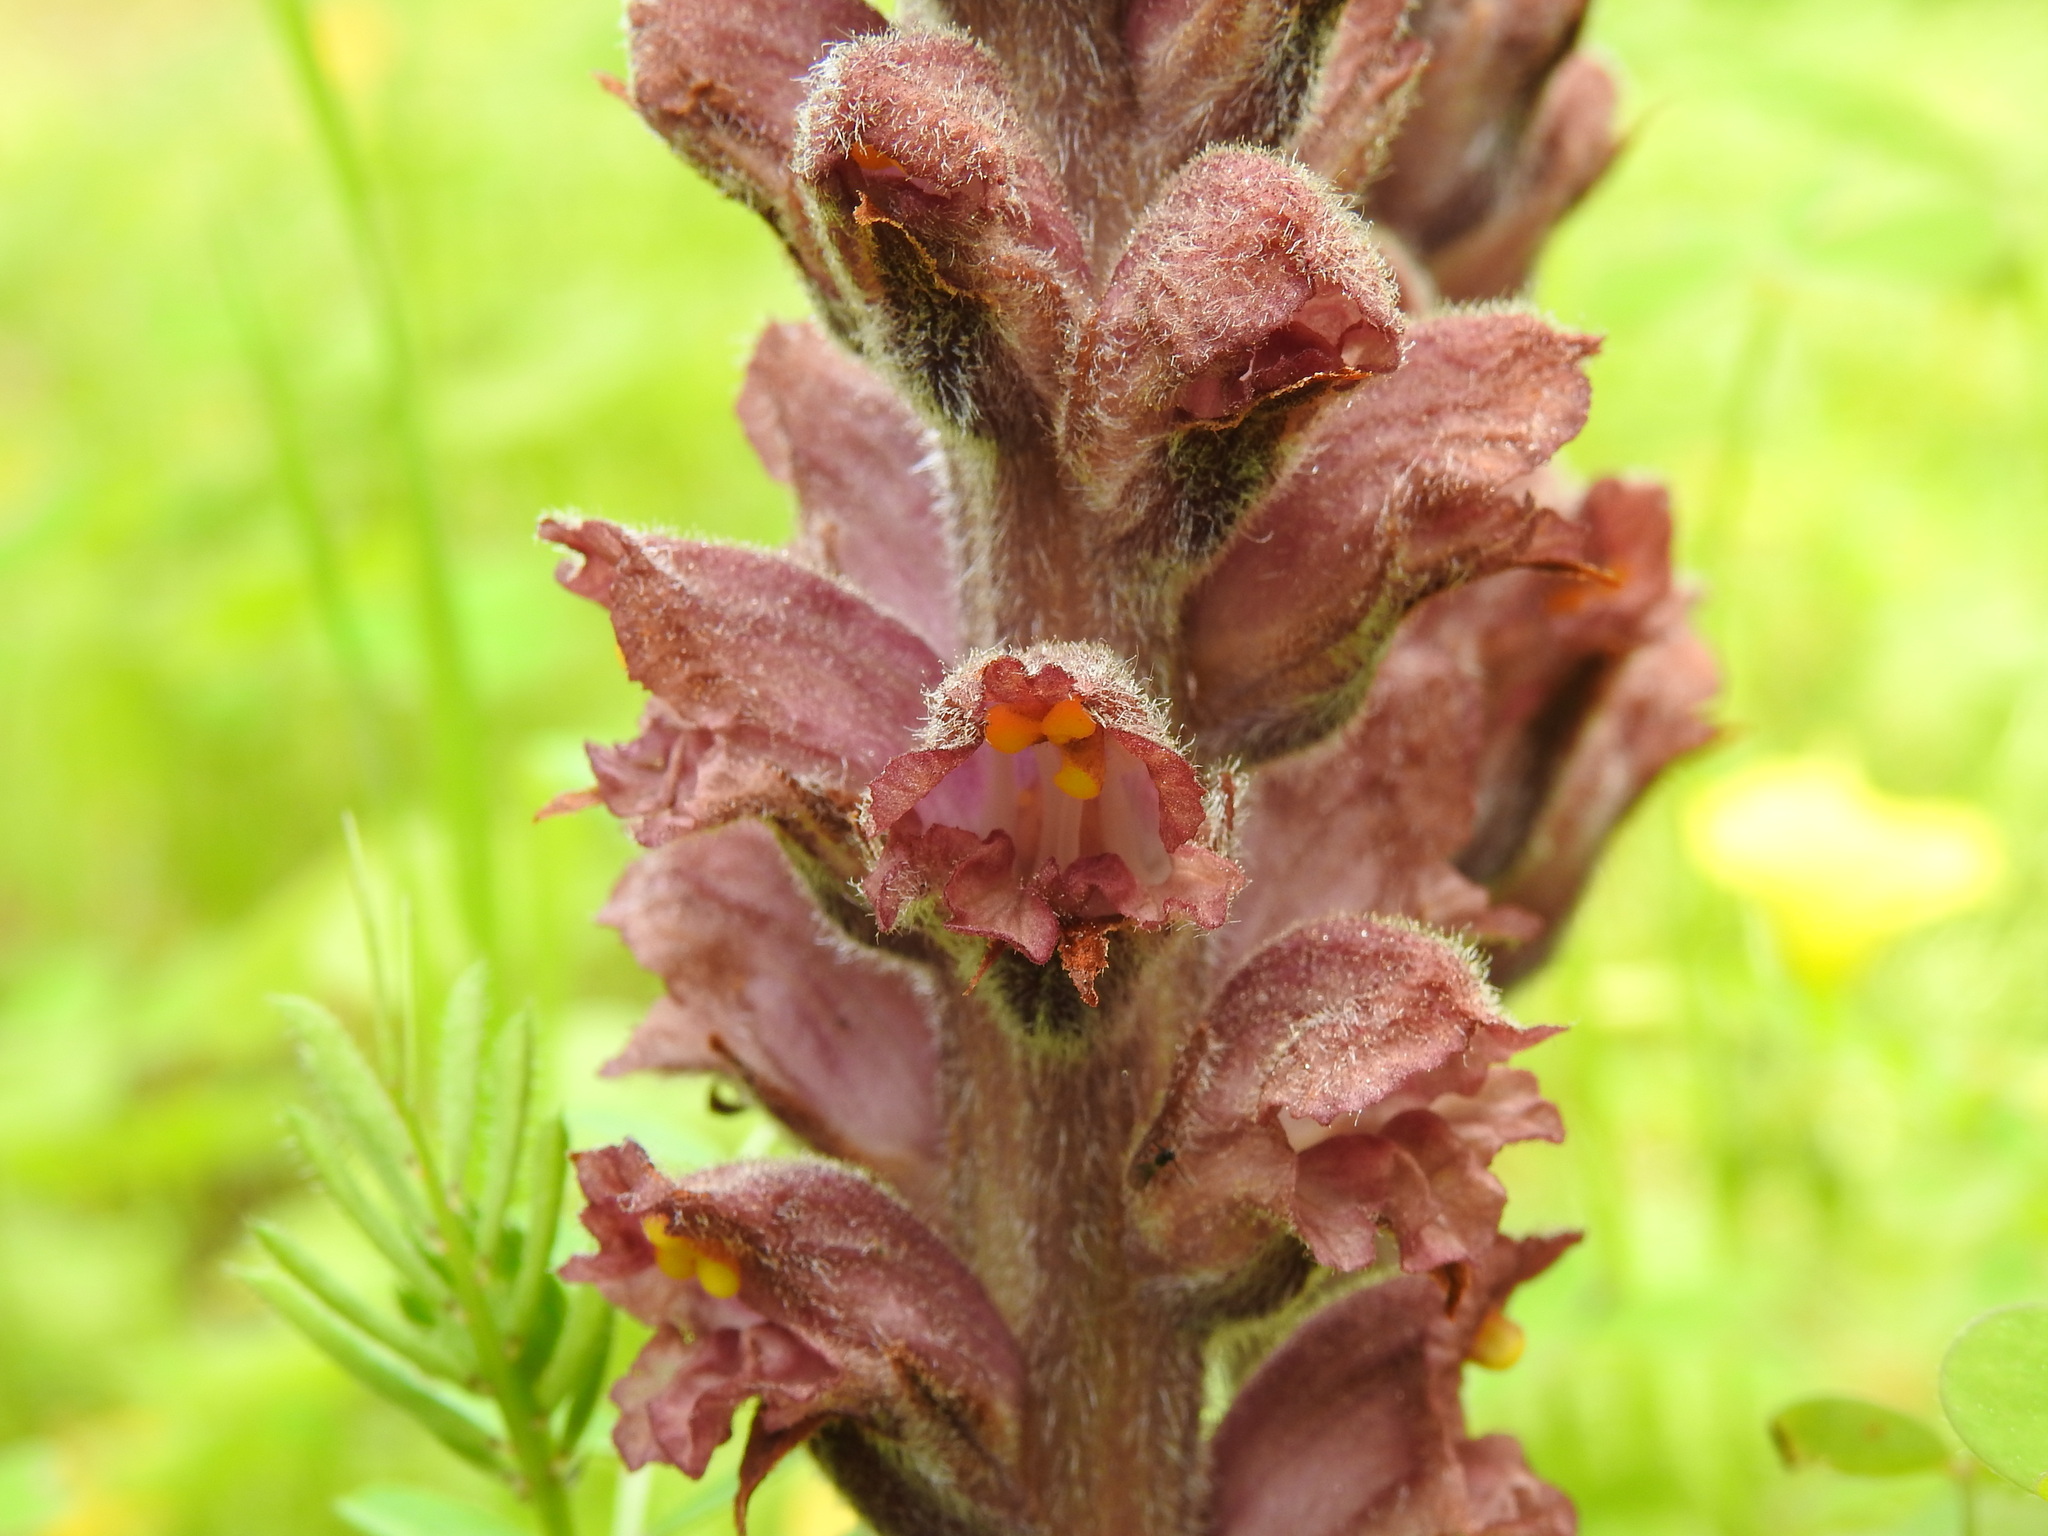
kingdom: Plantae
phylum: Tracheophyta
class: Magnoliopsida
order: Lamiales
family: Orobanchaceae
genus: Orobanche
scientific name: Orobanche rapum-genistae
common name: Greater broomrape
